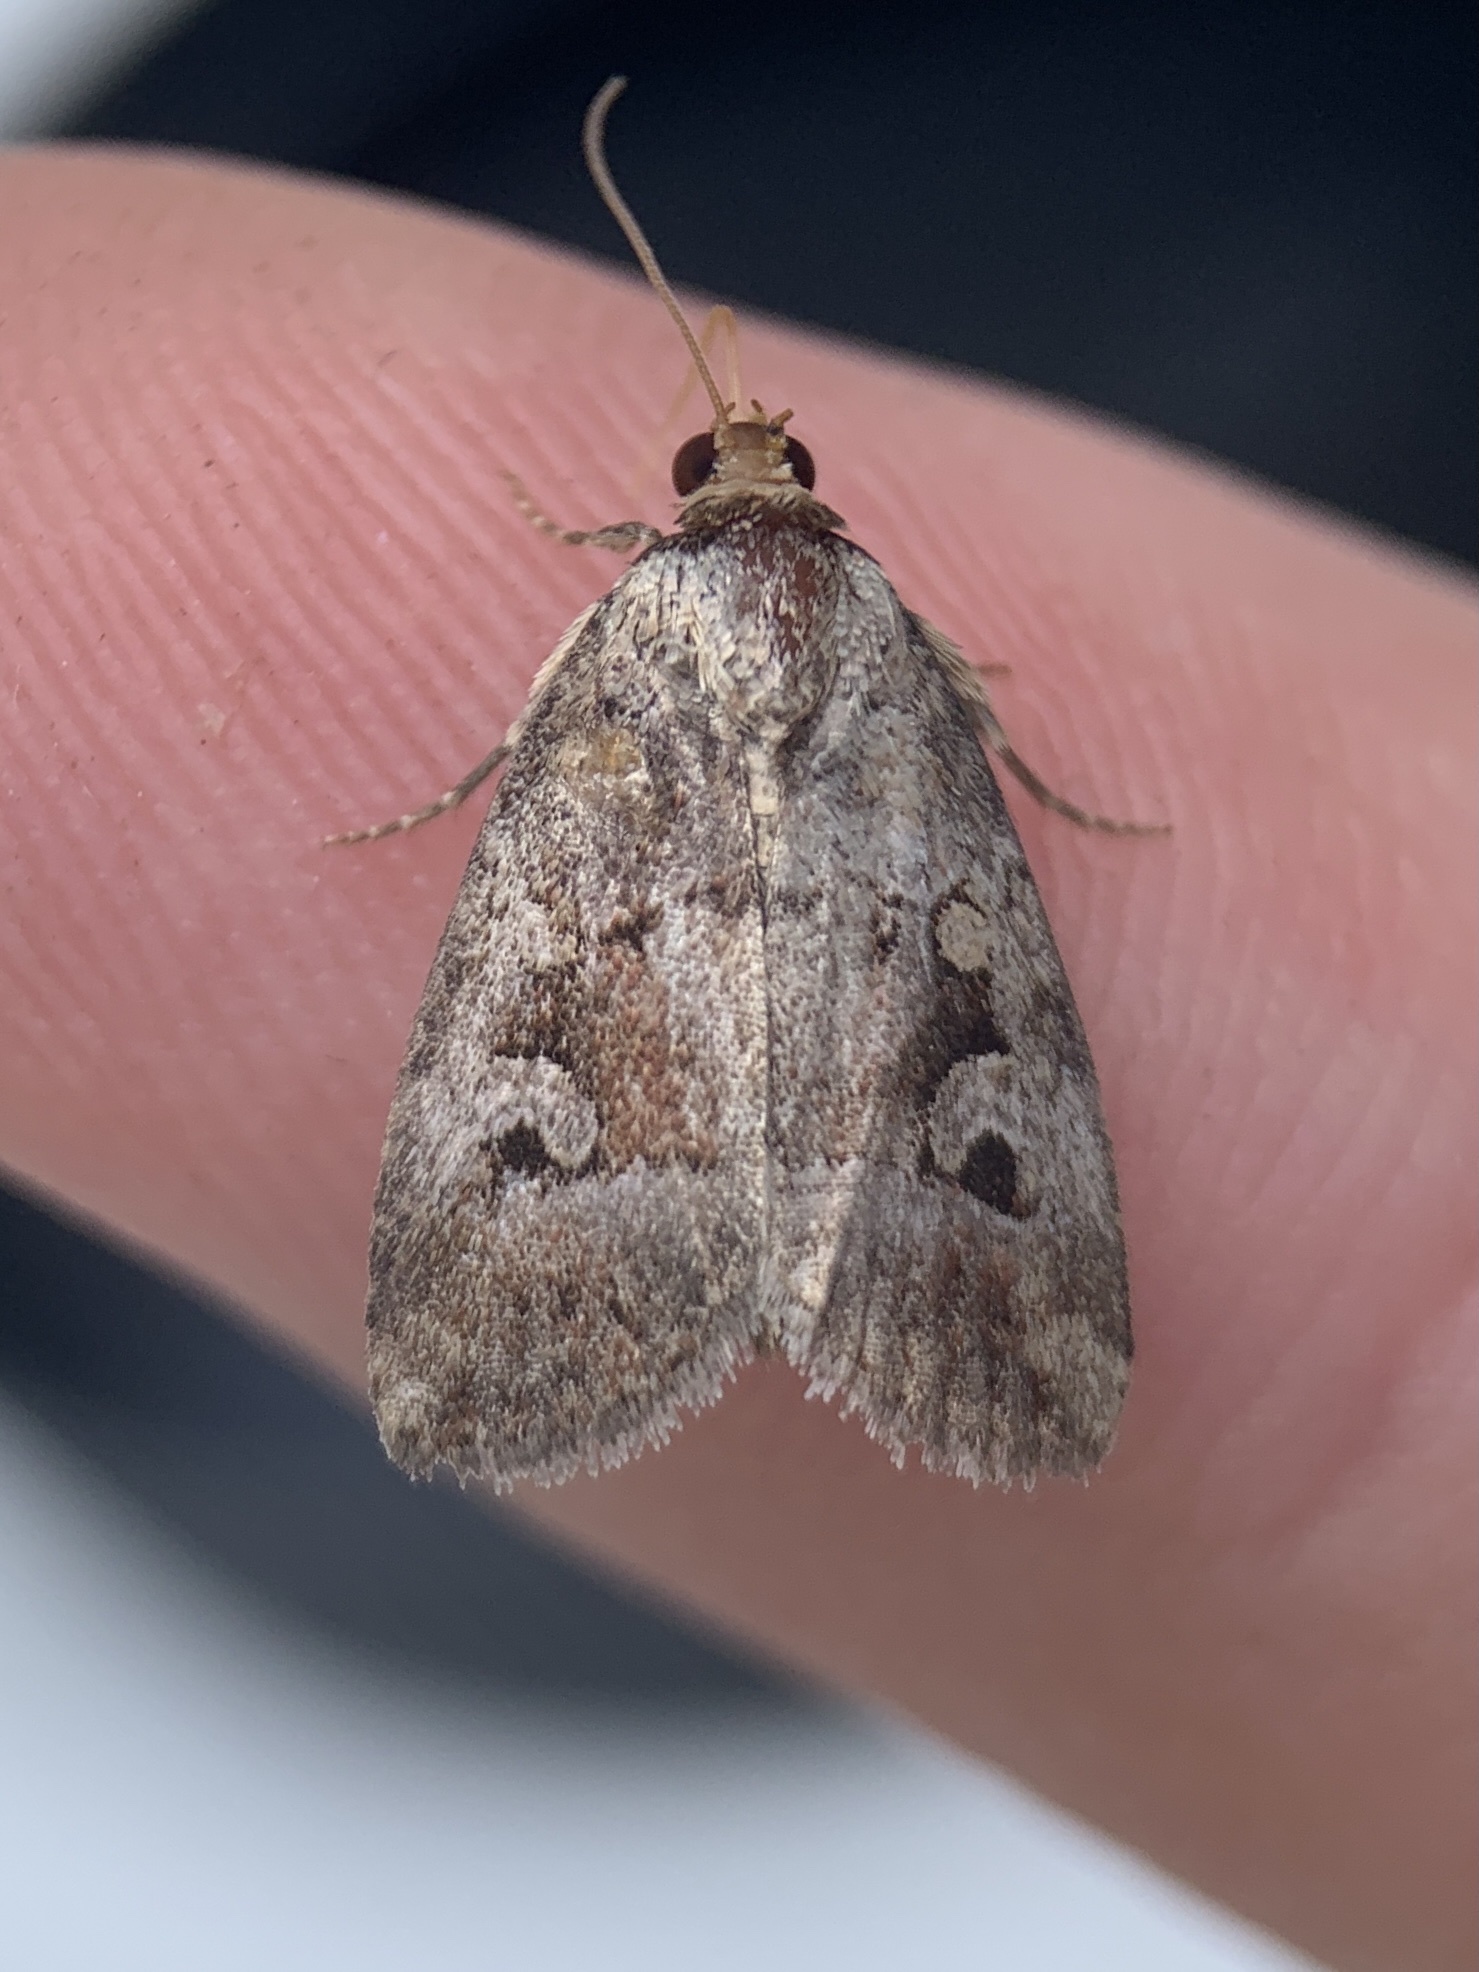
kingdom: Animalia
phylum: Arthropoda
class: Insecta
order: Lepidoptera
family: Noctuidae
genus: Elaphria
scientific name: Elaphria alapallida
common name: Pale-winged midget
